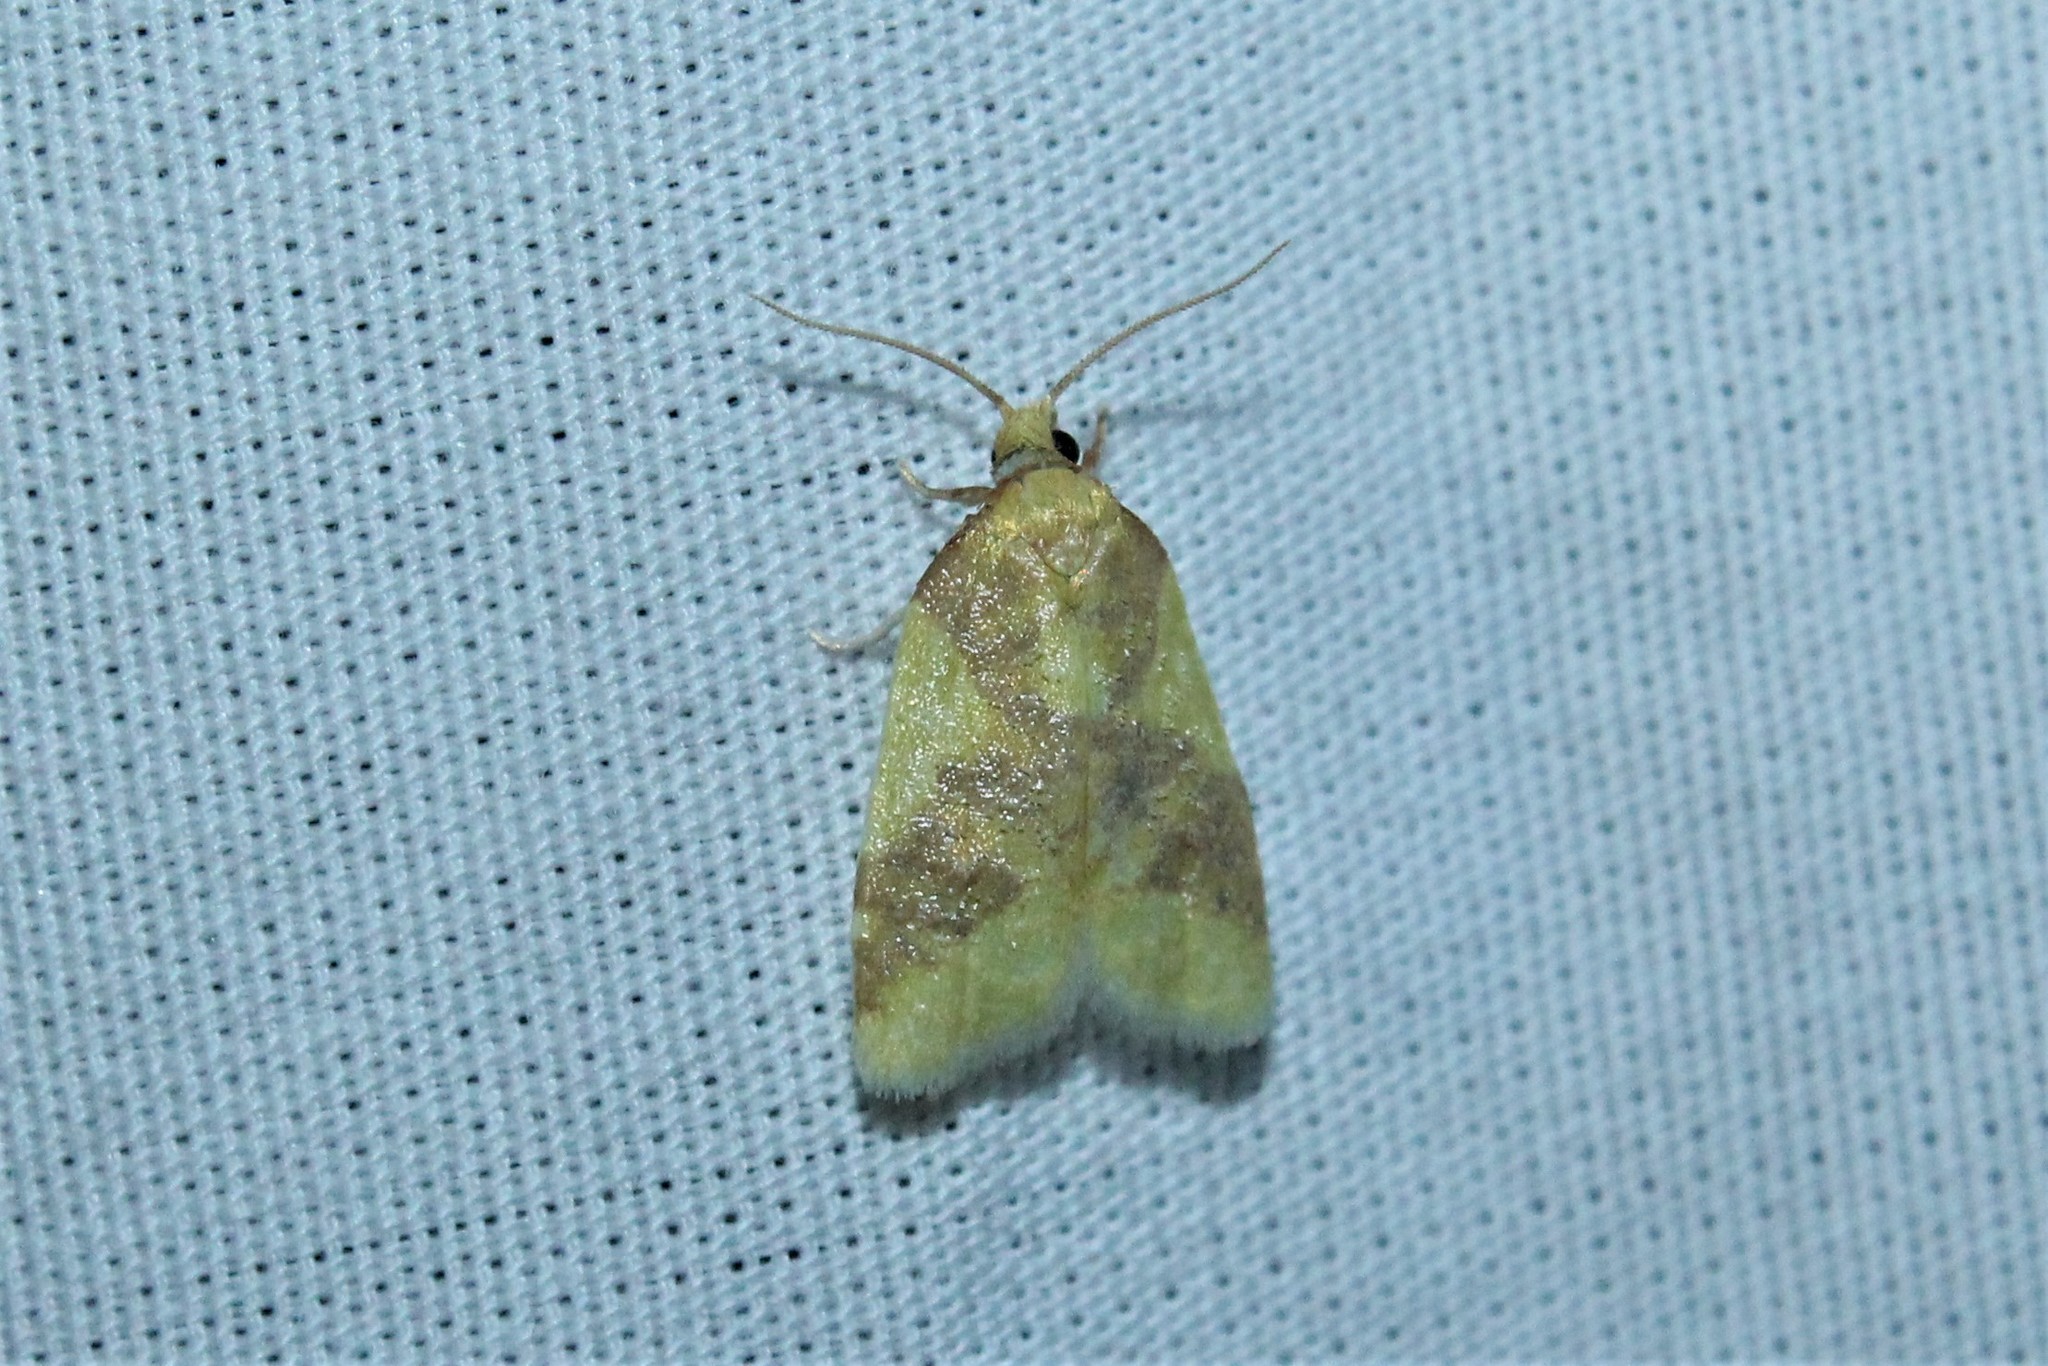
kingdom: Animalia
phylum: Arthropoda
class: Insecta
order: Lepidoptera
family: Tortricidae
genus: Sparganothis
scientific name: Sparganothis pulcherrimana
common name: Beautiful sparganothis
